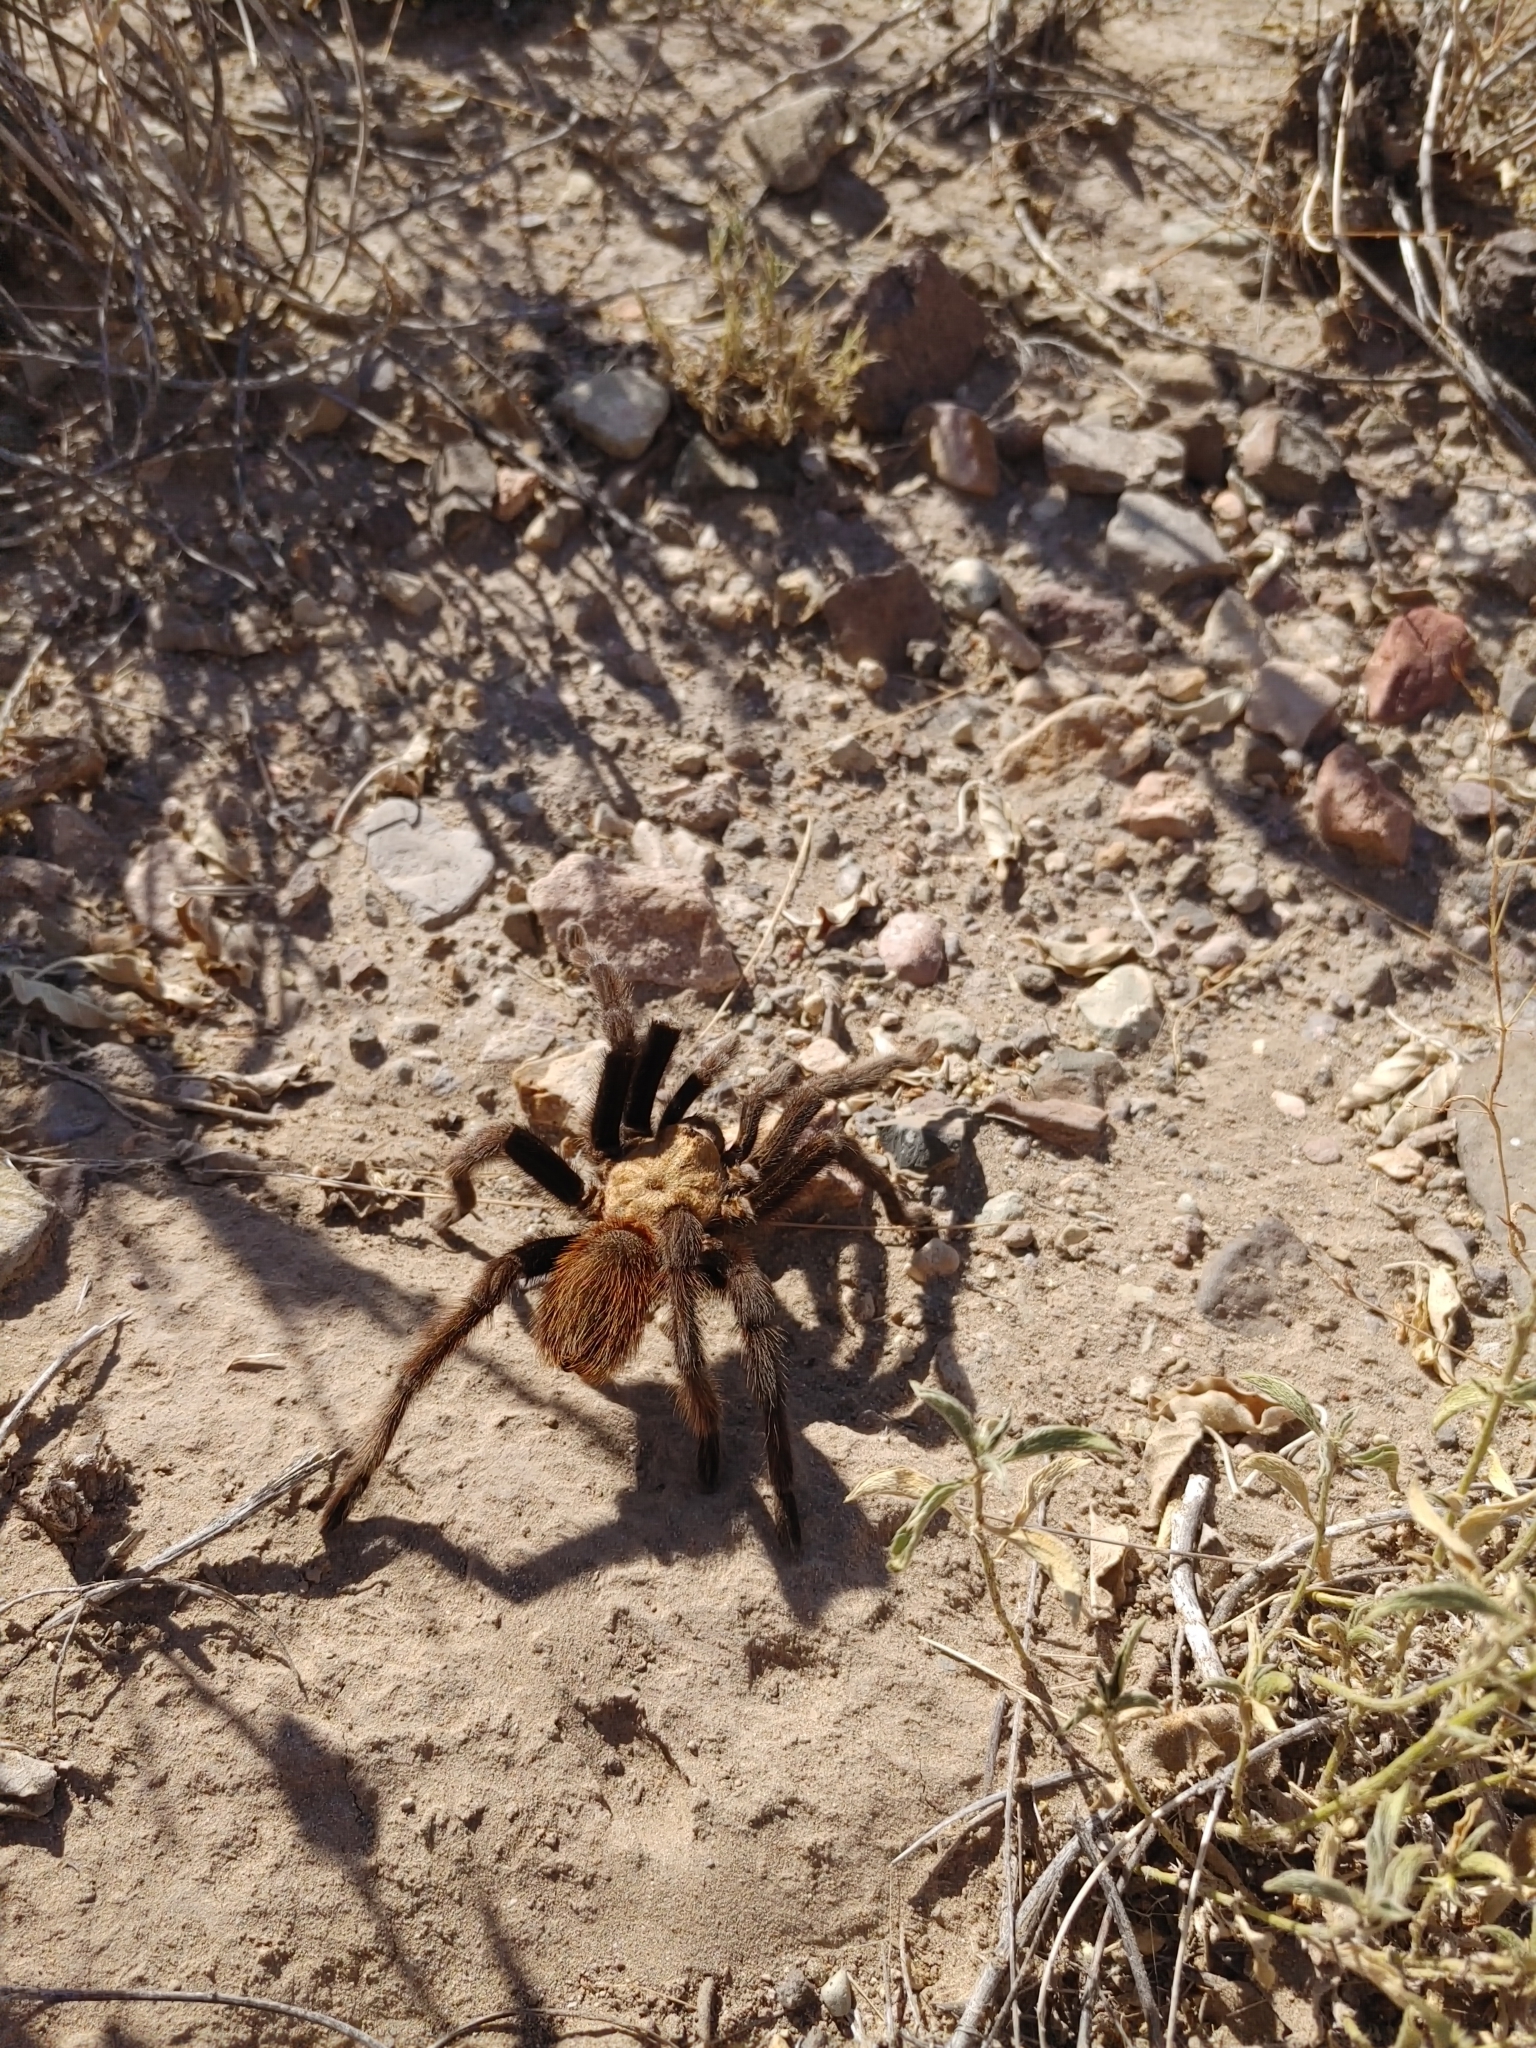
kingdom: Animalia
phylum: Arthropoda
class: Arachnida
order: Araneae
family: Theraphosidae
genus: Aphonopelma
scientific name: Aphonopelma hentzi
